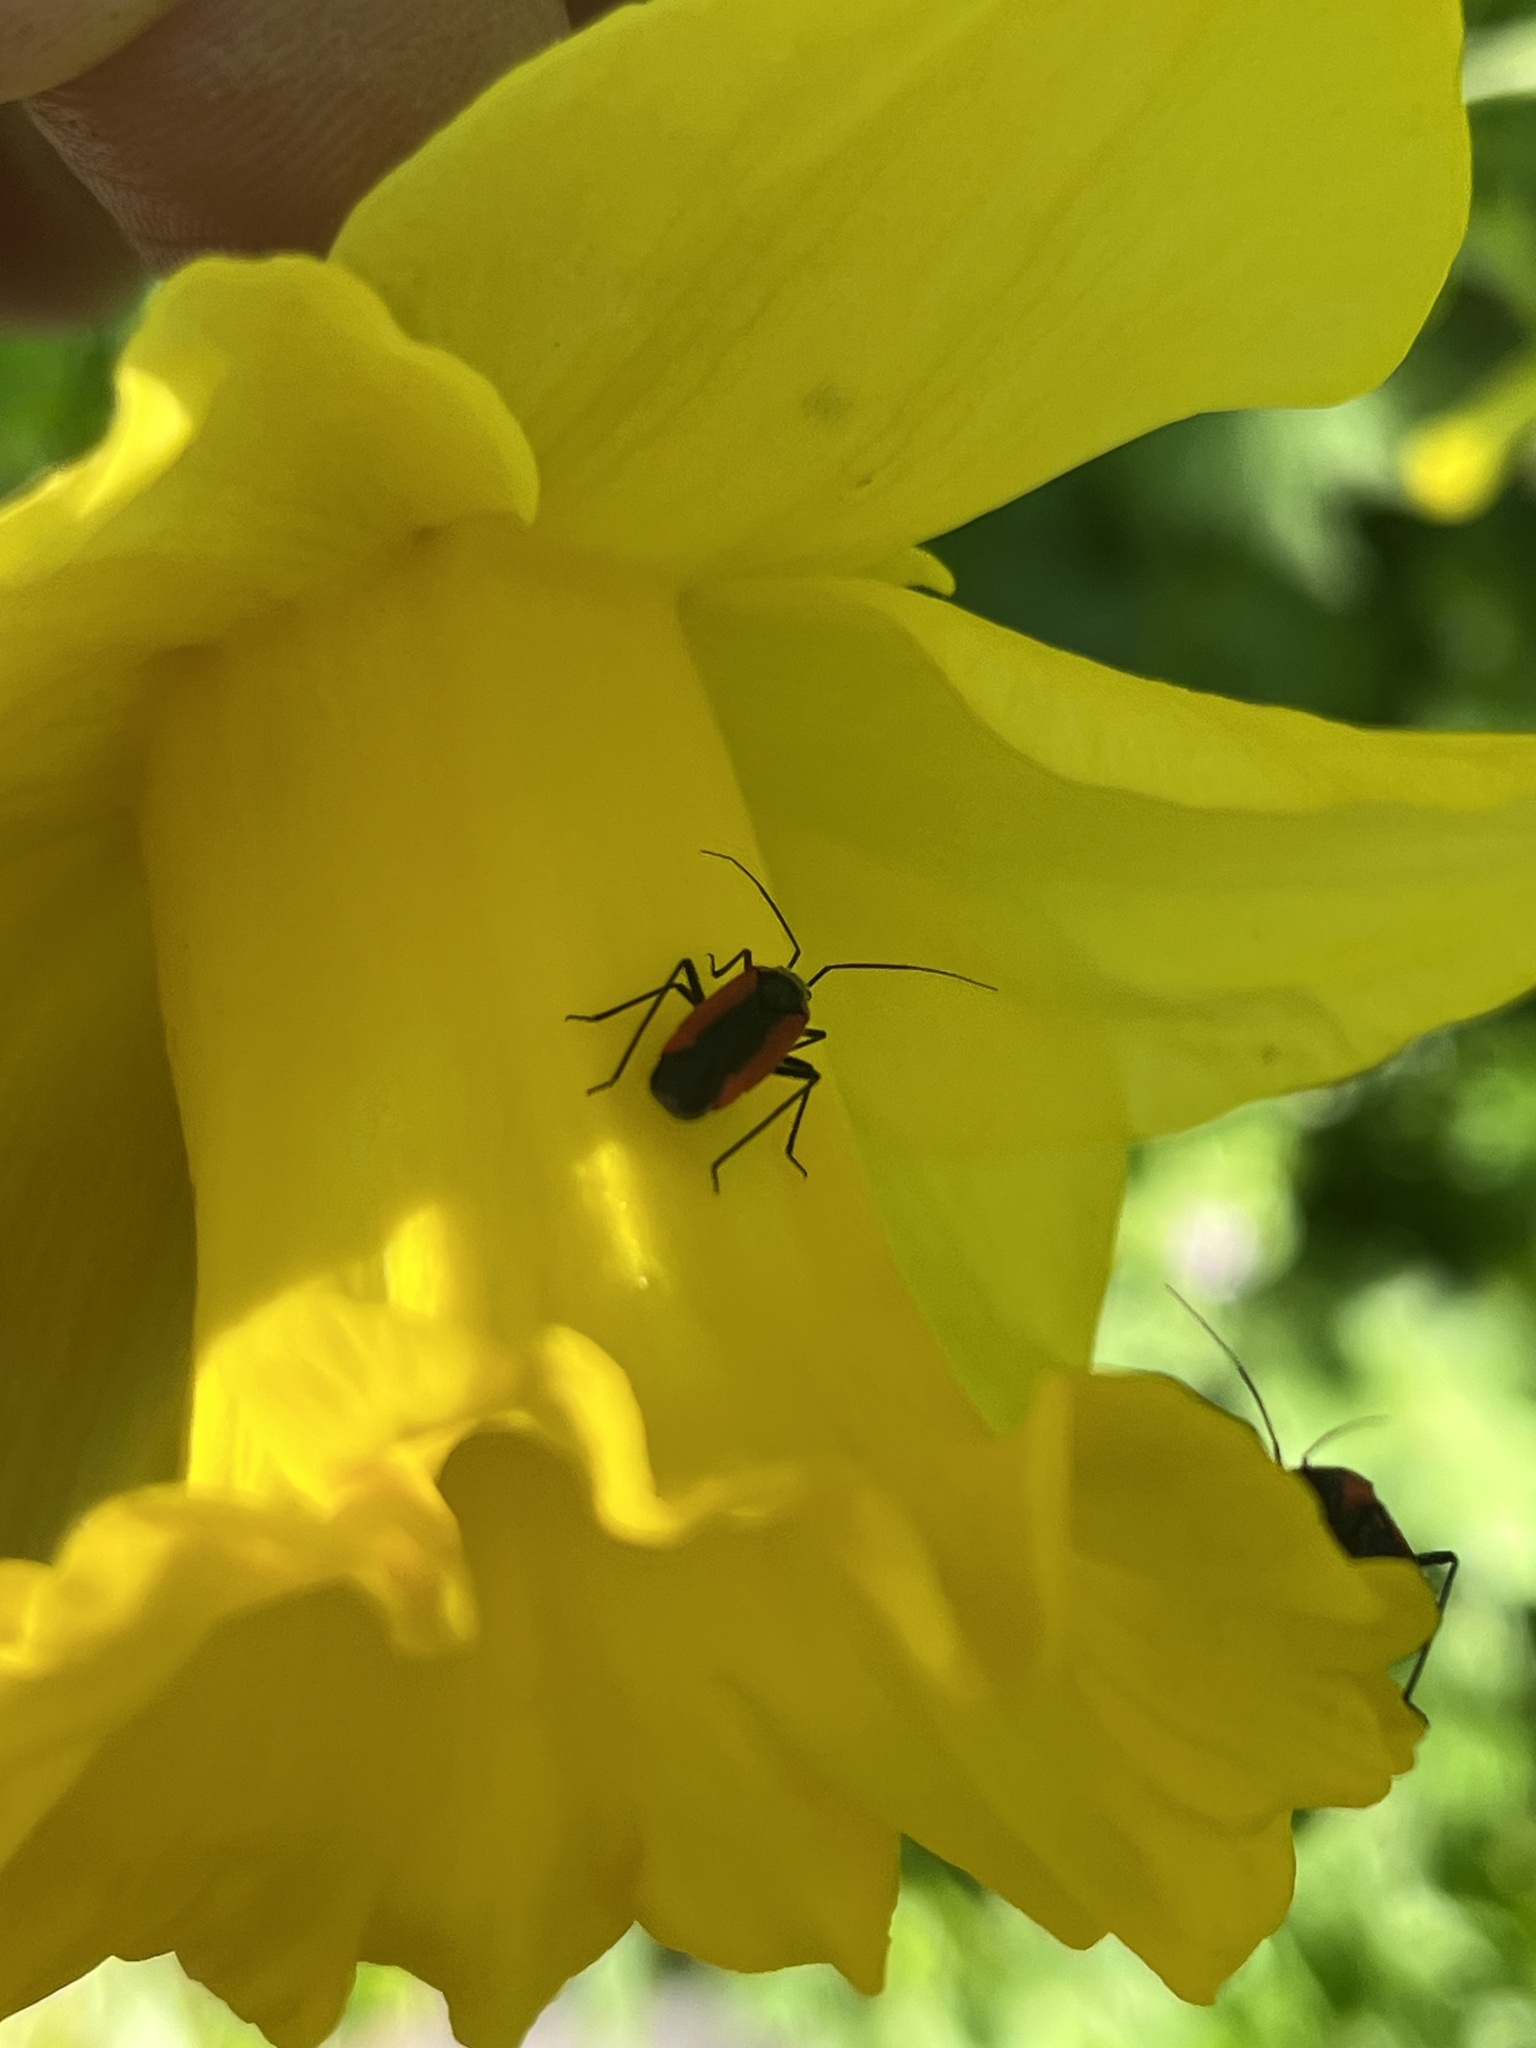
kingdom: Animalia
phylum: Arthropoda
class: Insecta
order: Hemiptera
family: Miridae
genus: Dionconotus
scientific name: Dionconotus neglectus
